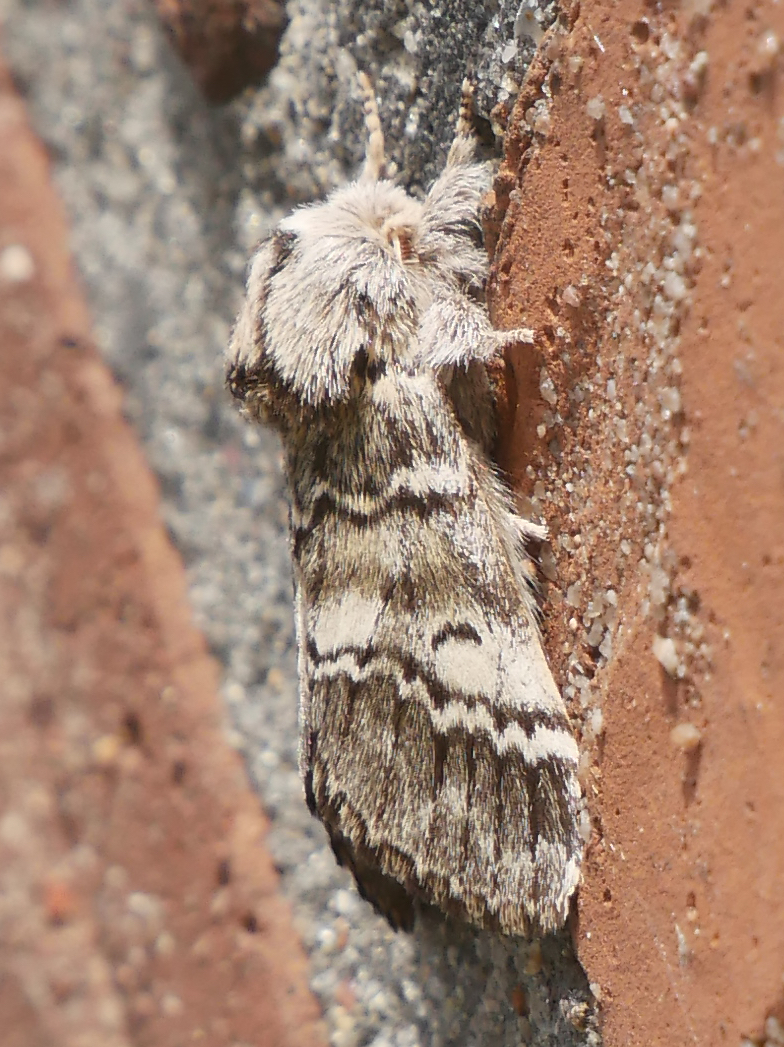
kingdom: Animalia
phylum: Arthropoda
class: Insecta
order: Lepidoptera
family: Notodontidae
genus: Drymonia
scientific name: Drymonia ruficornis
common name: Lunar marbled brown
